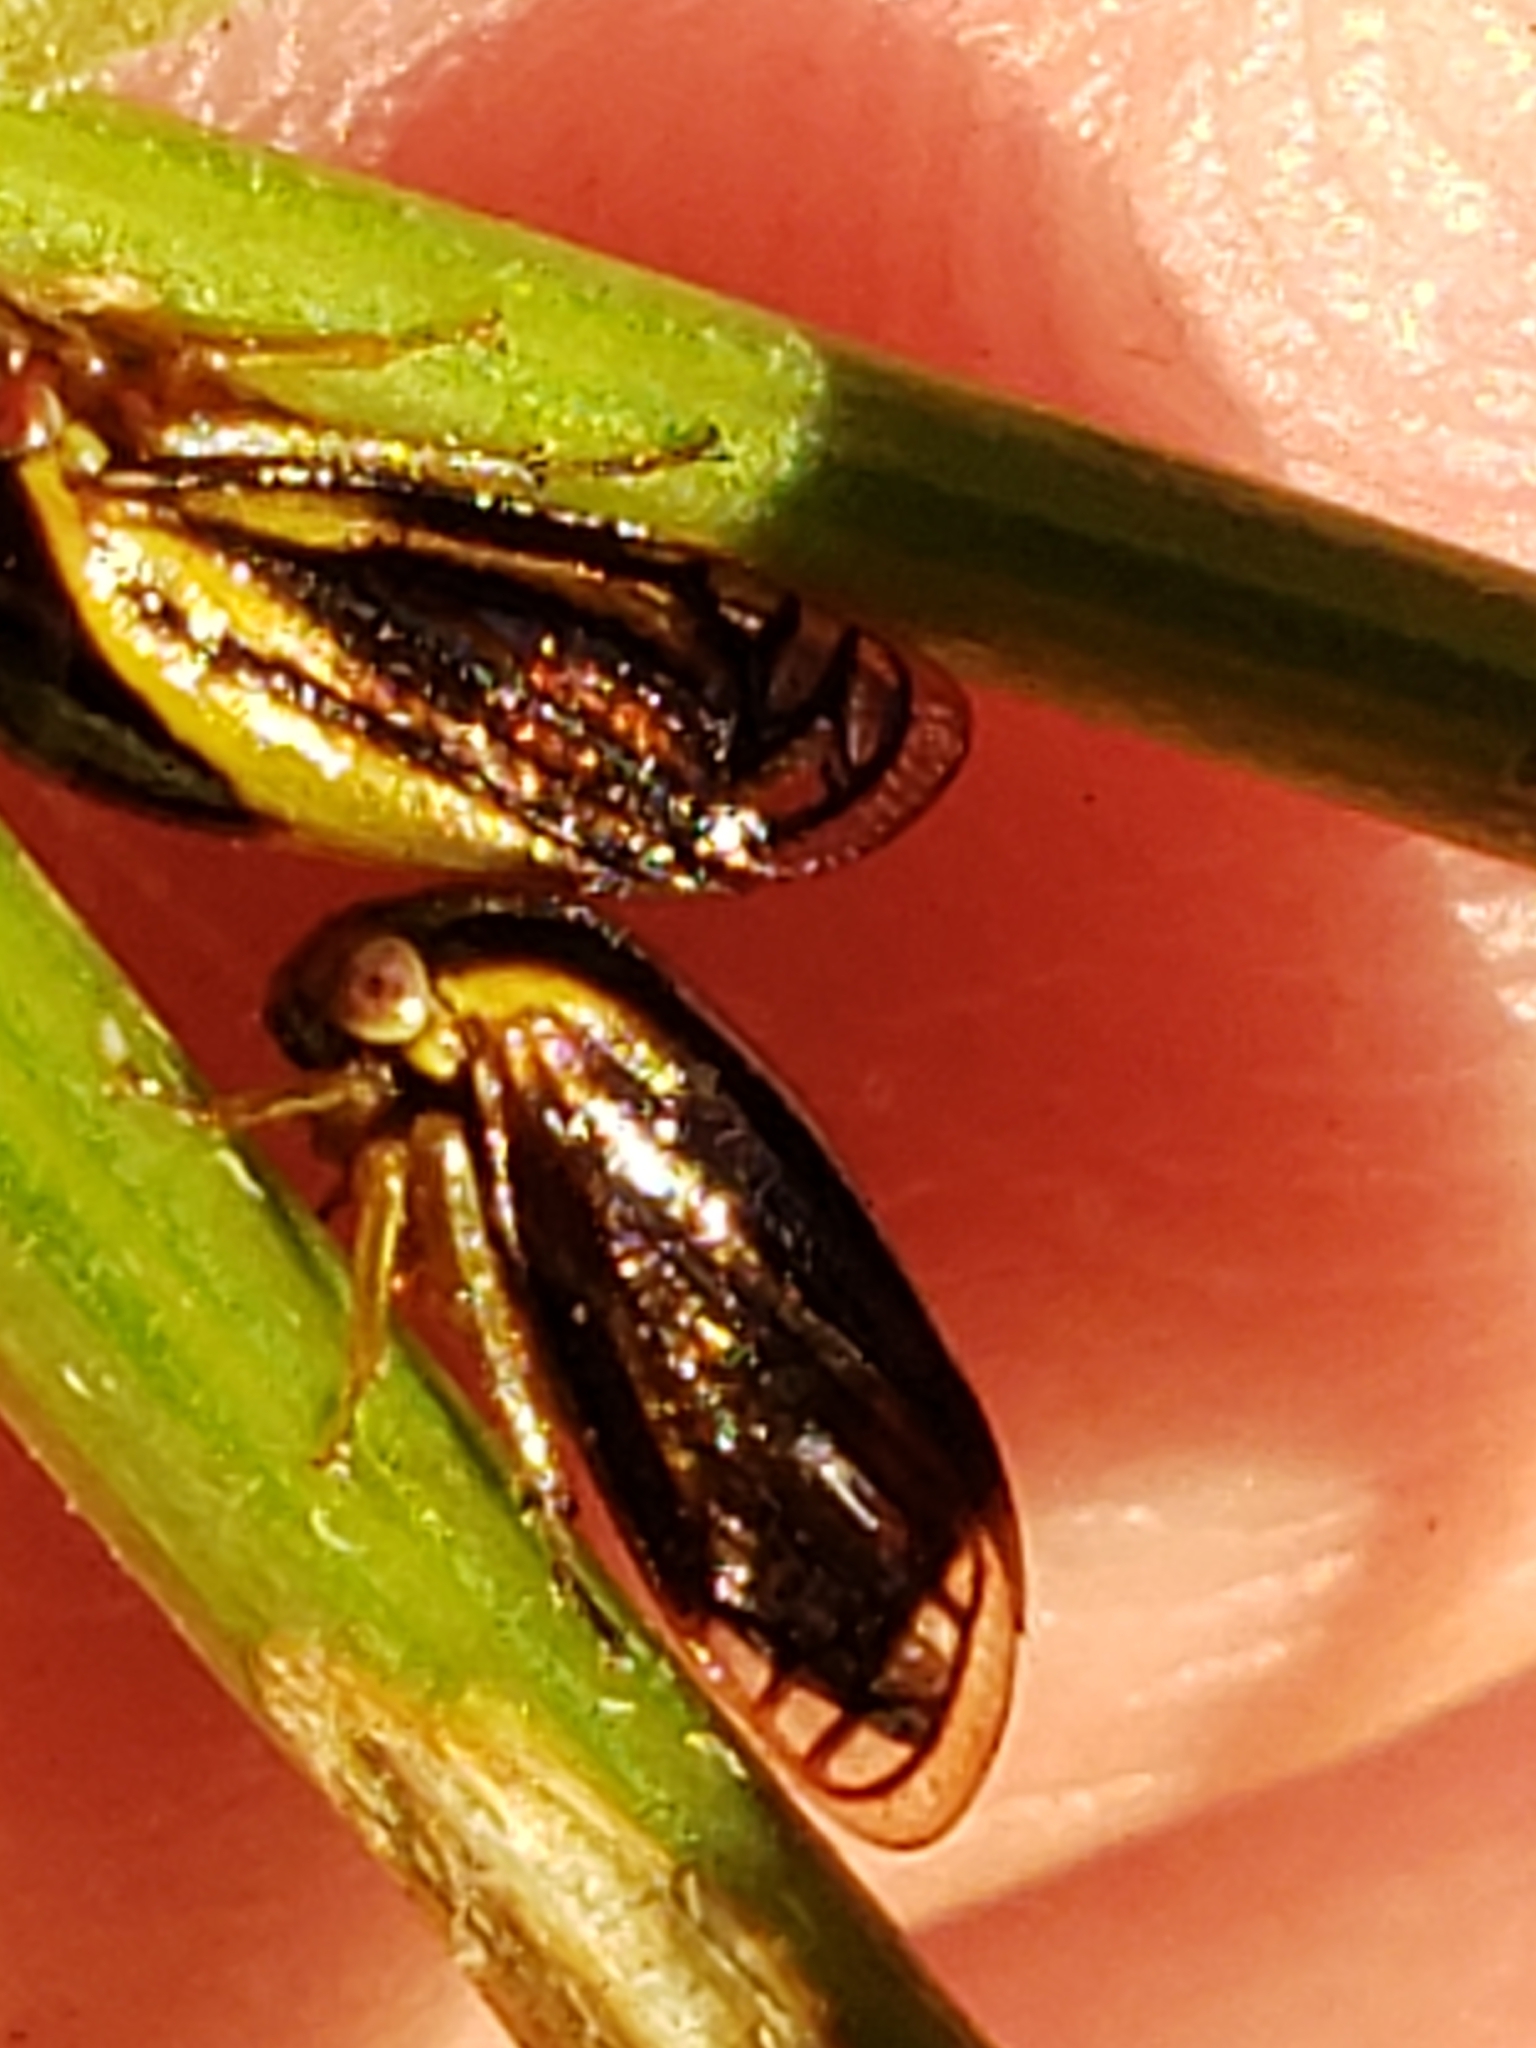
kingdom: Animalia
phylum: Arthropoda
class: Insecta
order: Hemiptera
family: Membracidae
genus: Acutalis
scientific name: Acutalis tartarea
